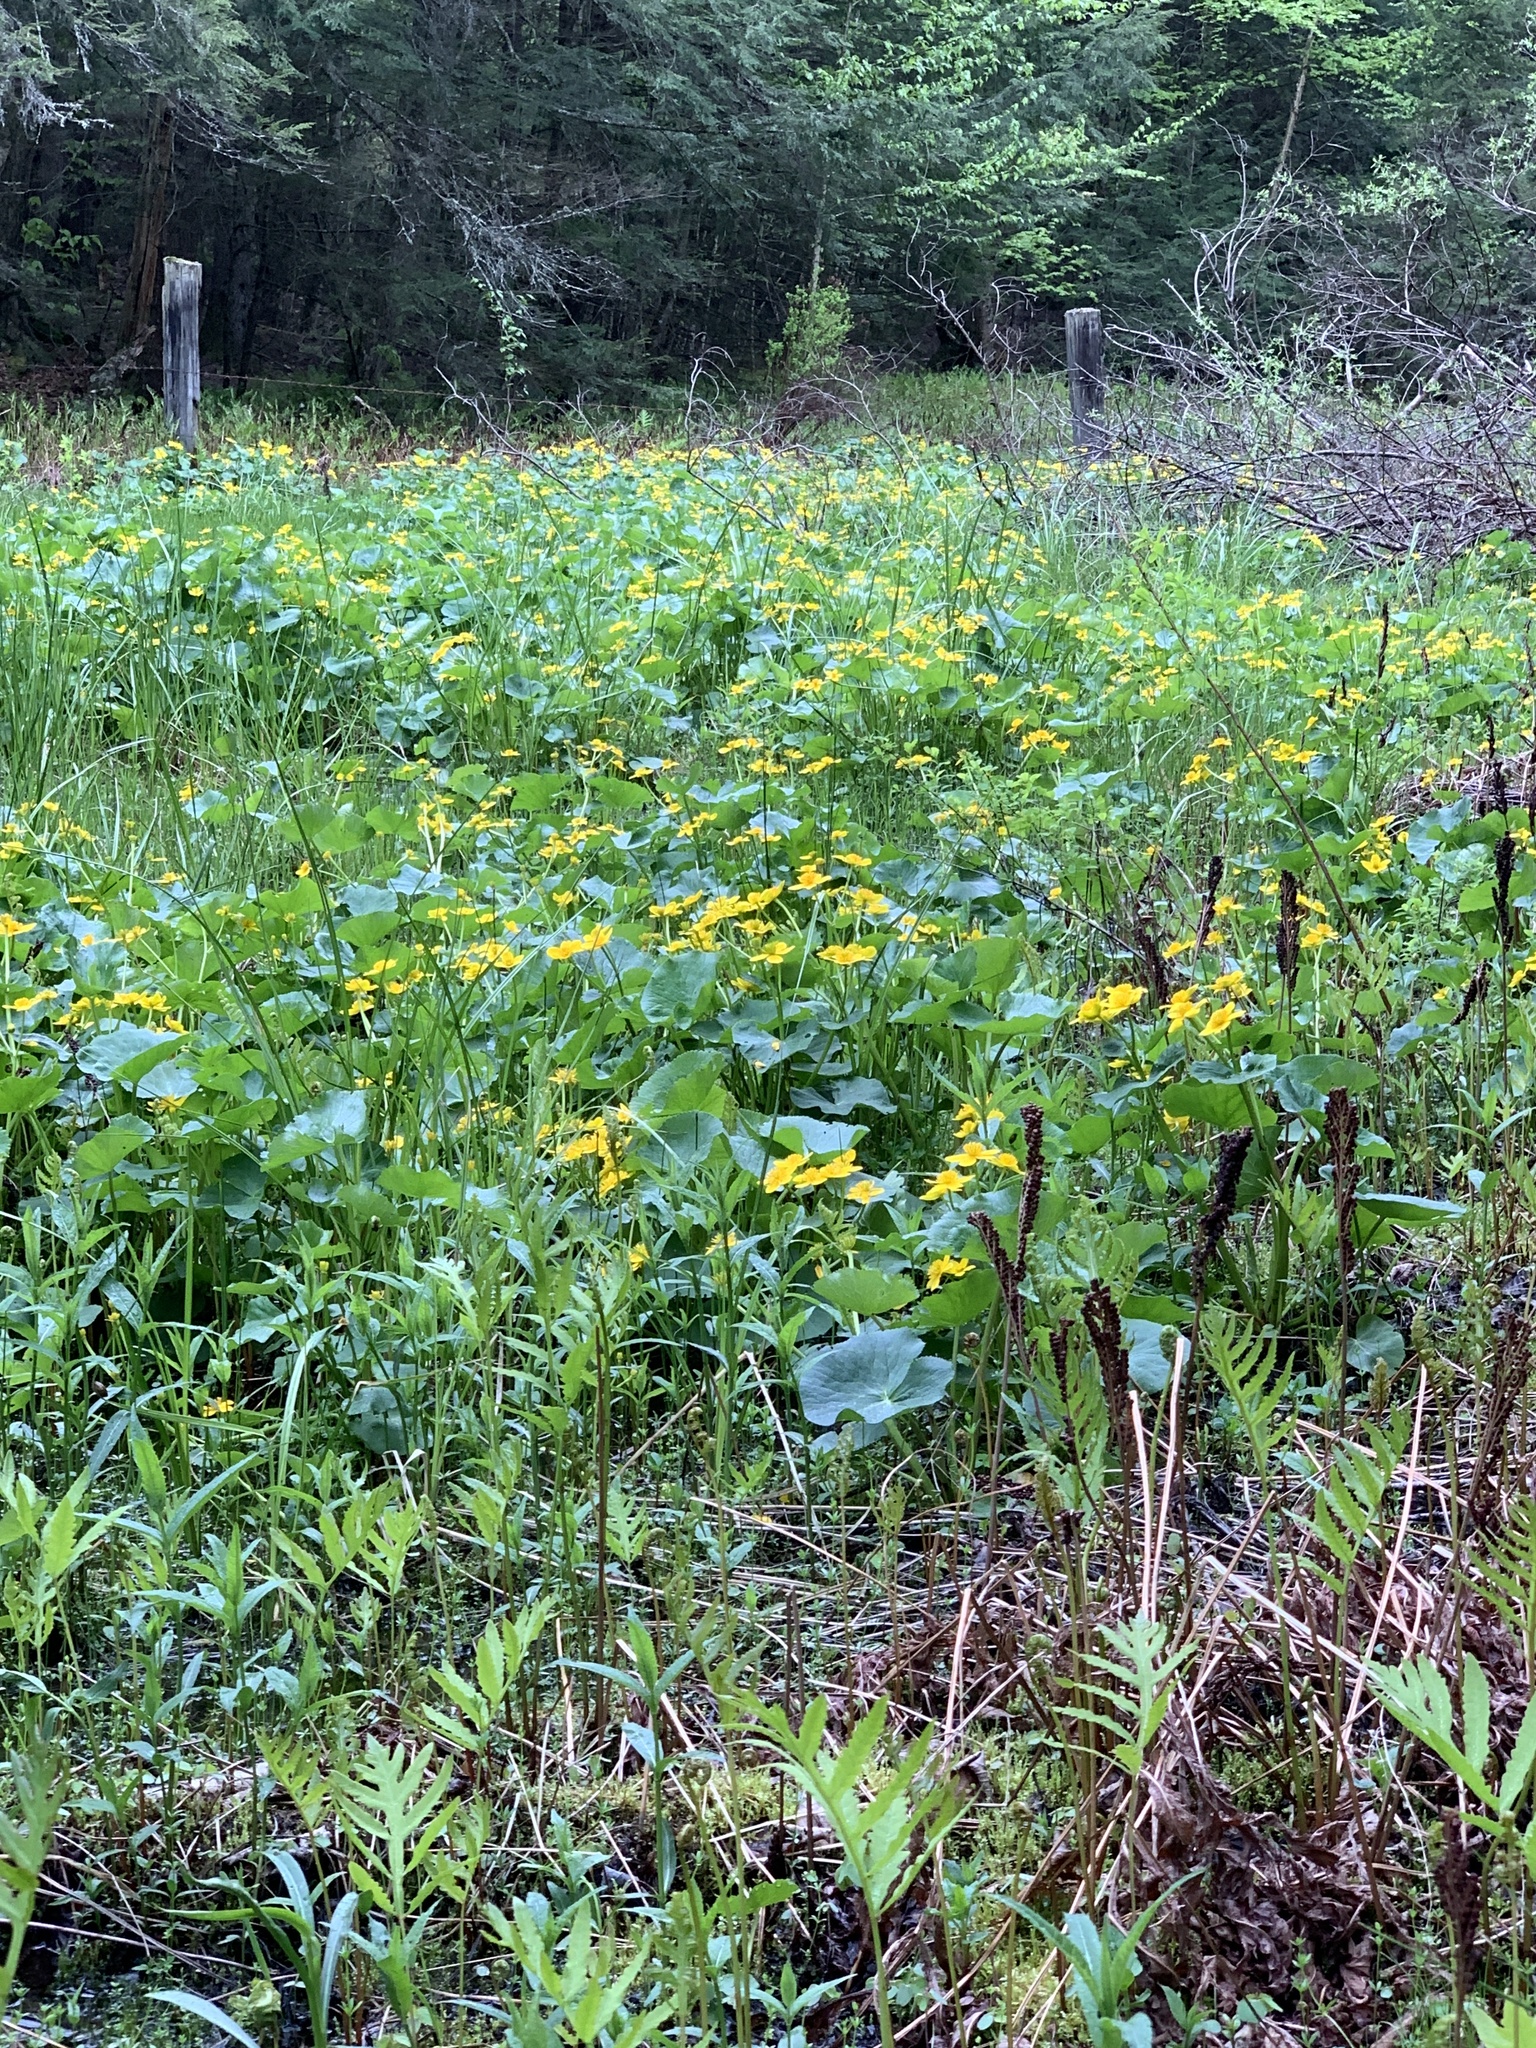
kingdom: Plantae
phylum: Tracheophyta
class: Magnoliopsida
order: Ranunculales
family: Ranunculaceae
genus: Caltha
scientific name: Caltha palustris
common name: Marsh marigold
